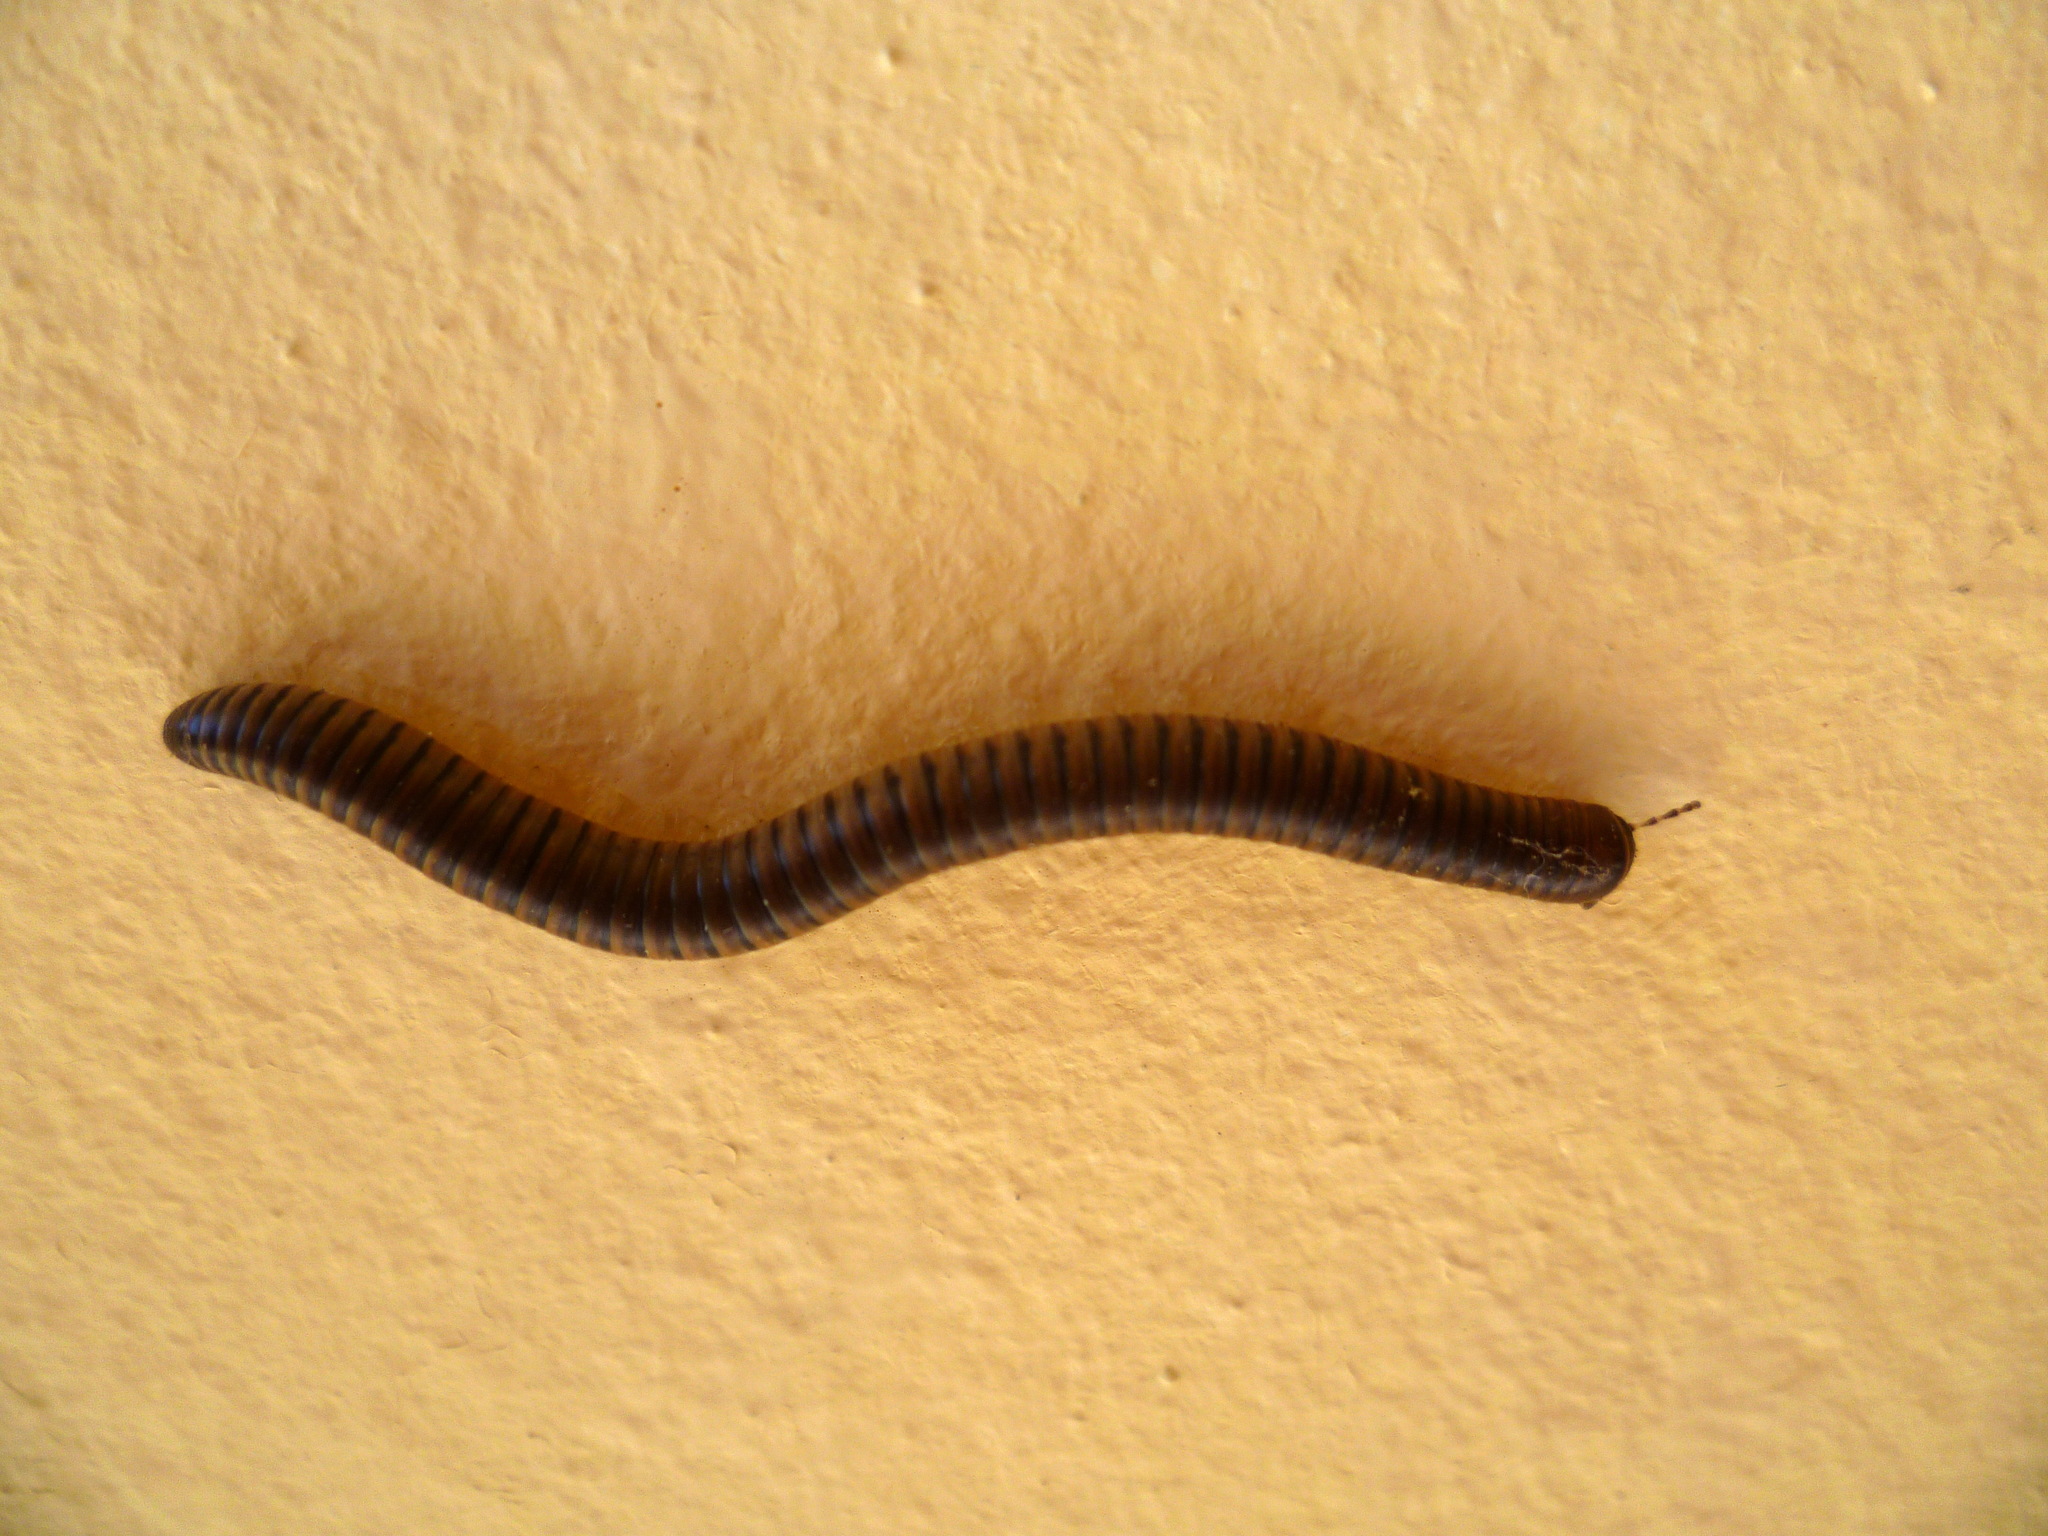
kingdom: Animalia
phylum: Arthropoda
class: Diplopoda
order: Julida
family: Julidae
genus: Pachyiulus
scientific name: Pachyiulus asiaeminoris
